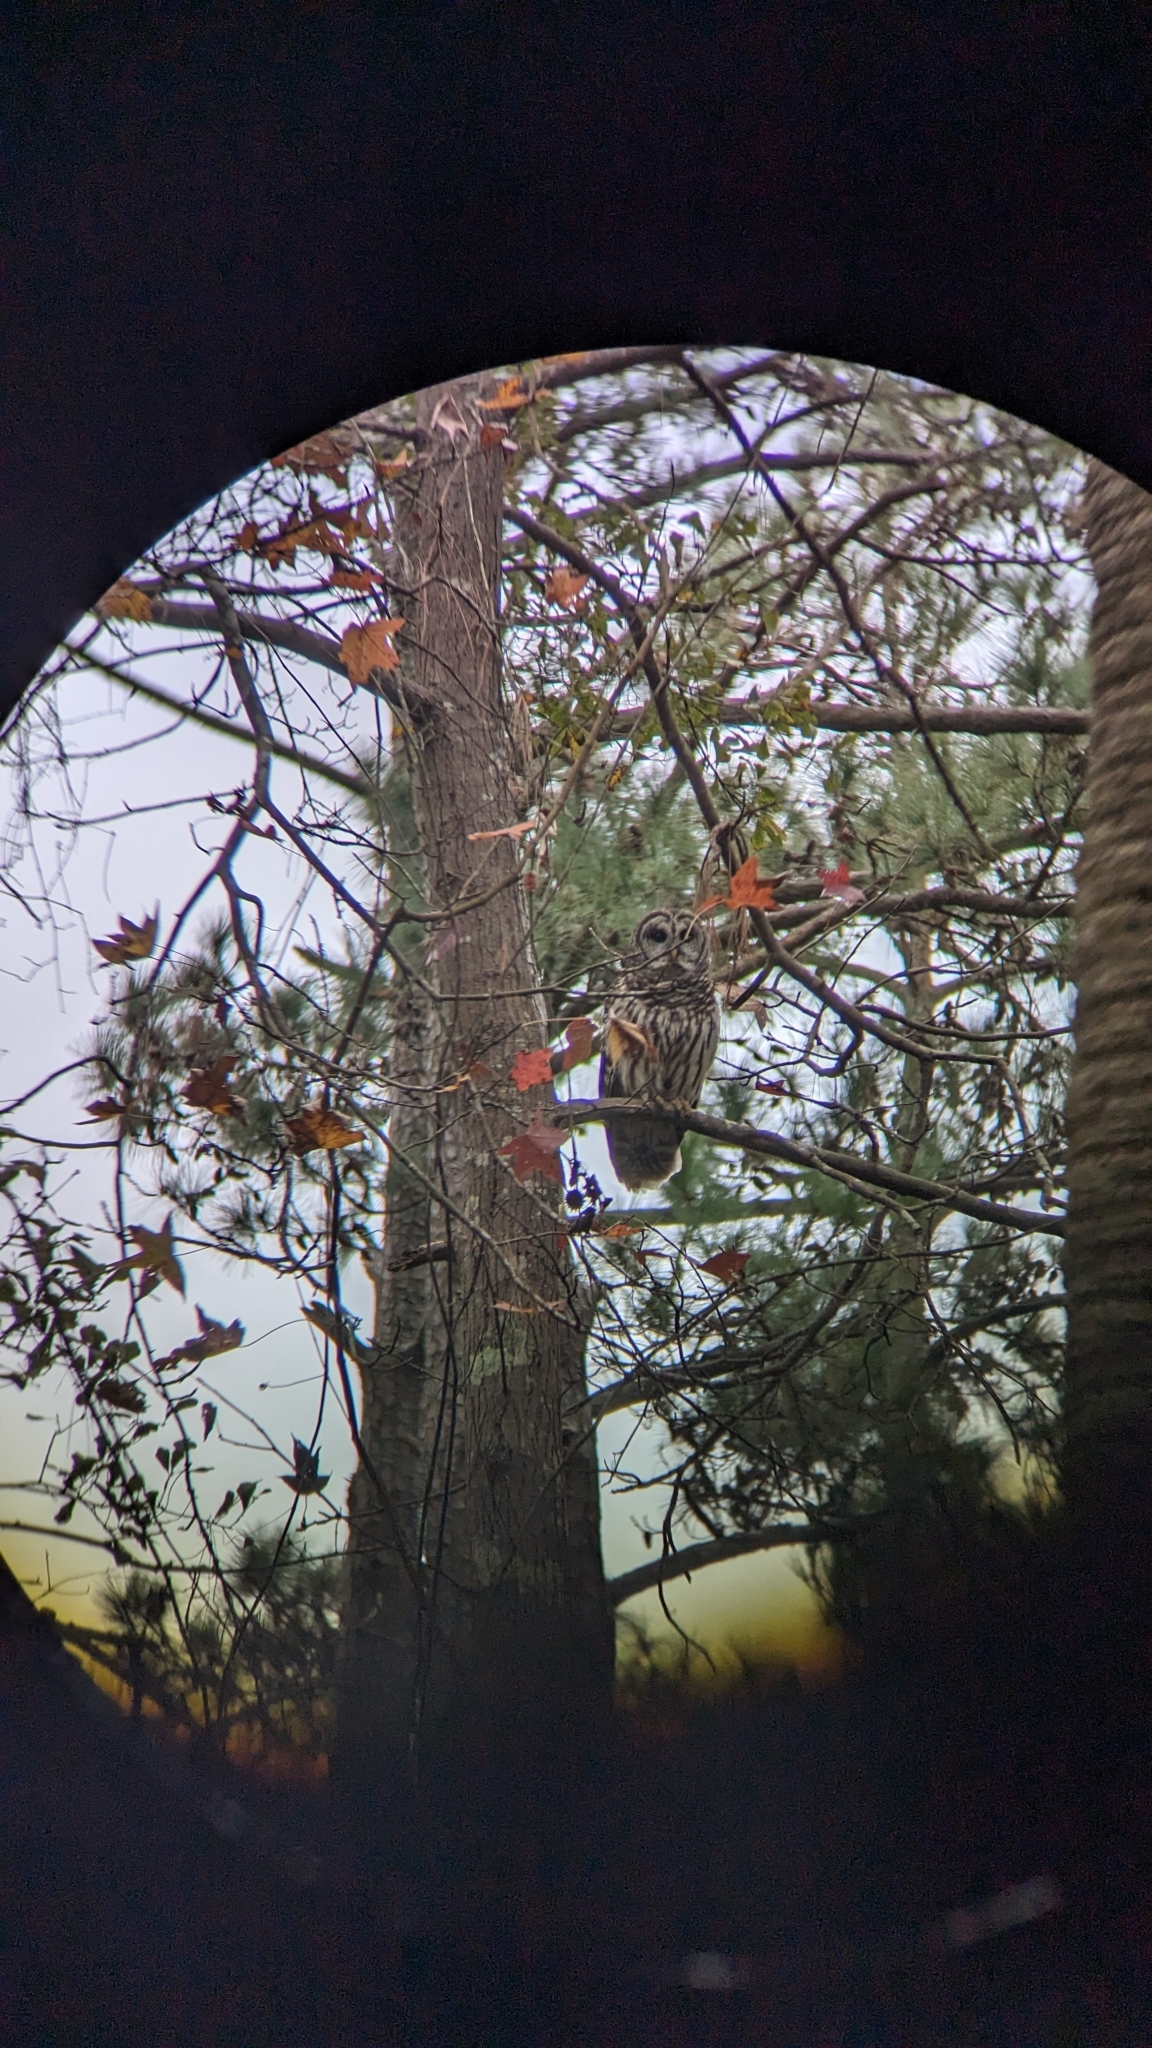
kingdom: Animalia
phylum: Chordata
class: Aves
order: Strigiformes
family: Strigidae
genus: Strix
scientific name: Strix varia
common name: Barred owl
